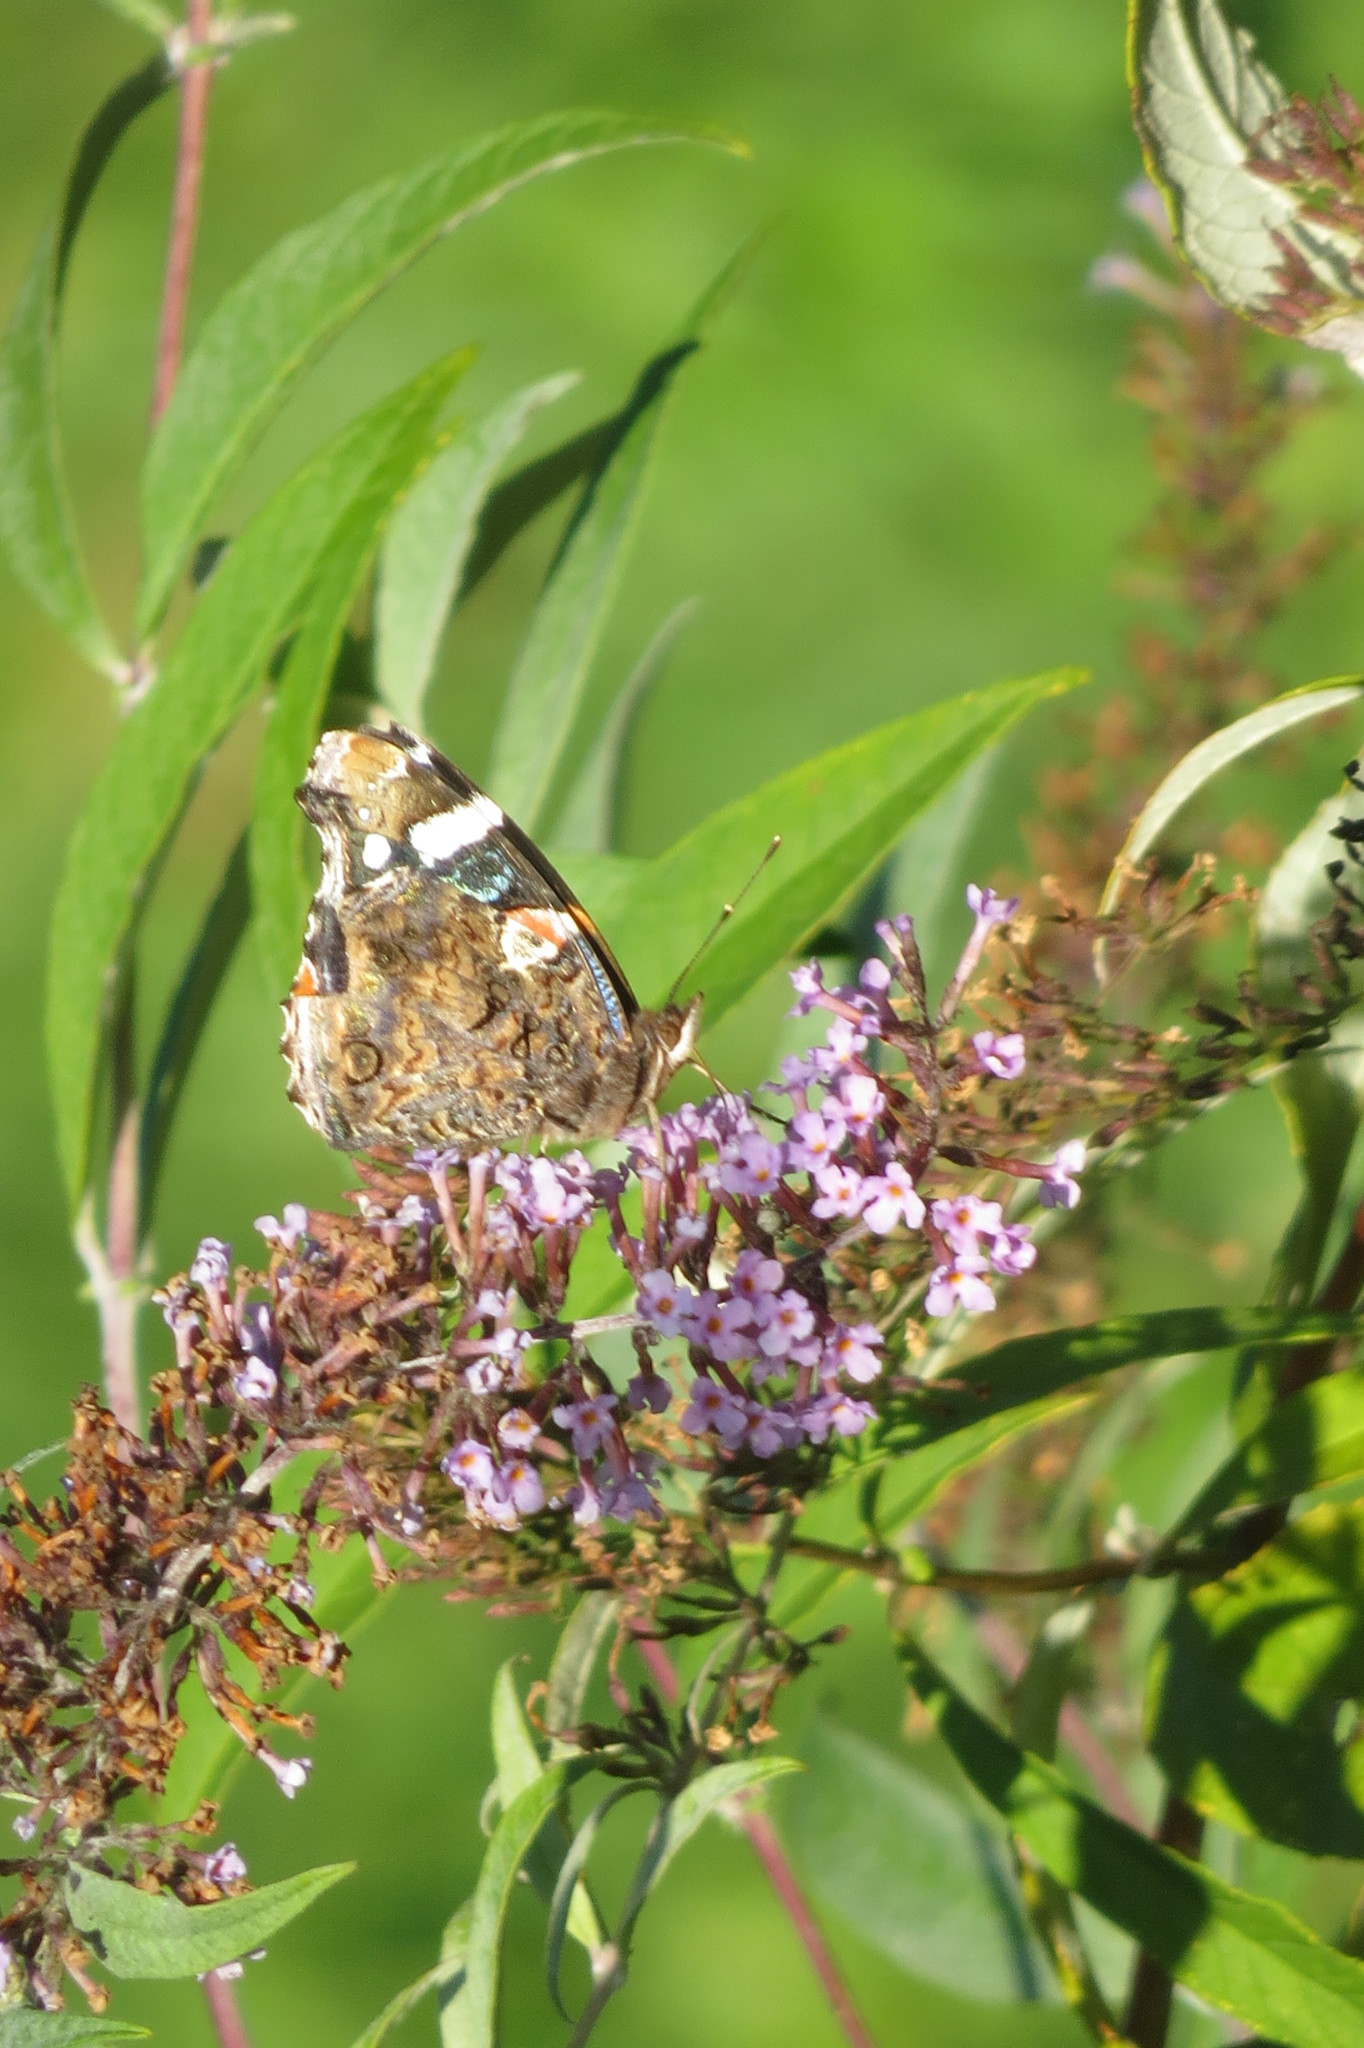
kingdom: Animalia
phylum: Arthropoda
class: Insecta
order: Lepidoptera
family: Nymphalidae
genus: Vanessa
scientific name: Vanessa atalanta
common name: Red admiral
